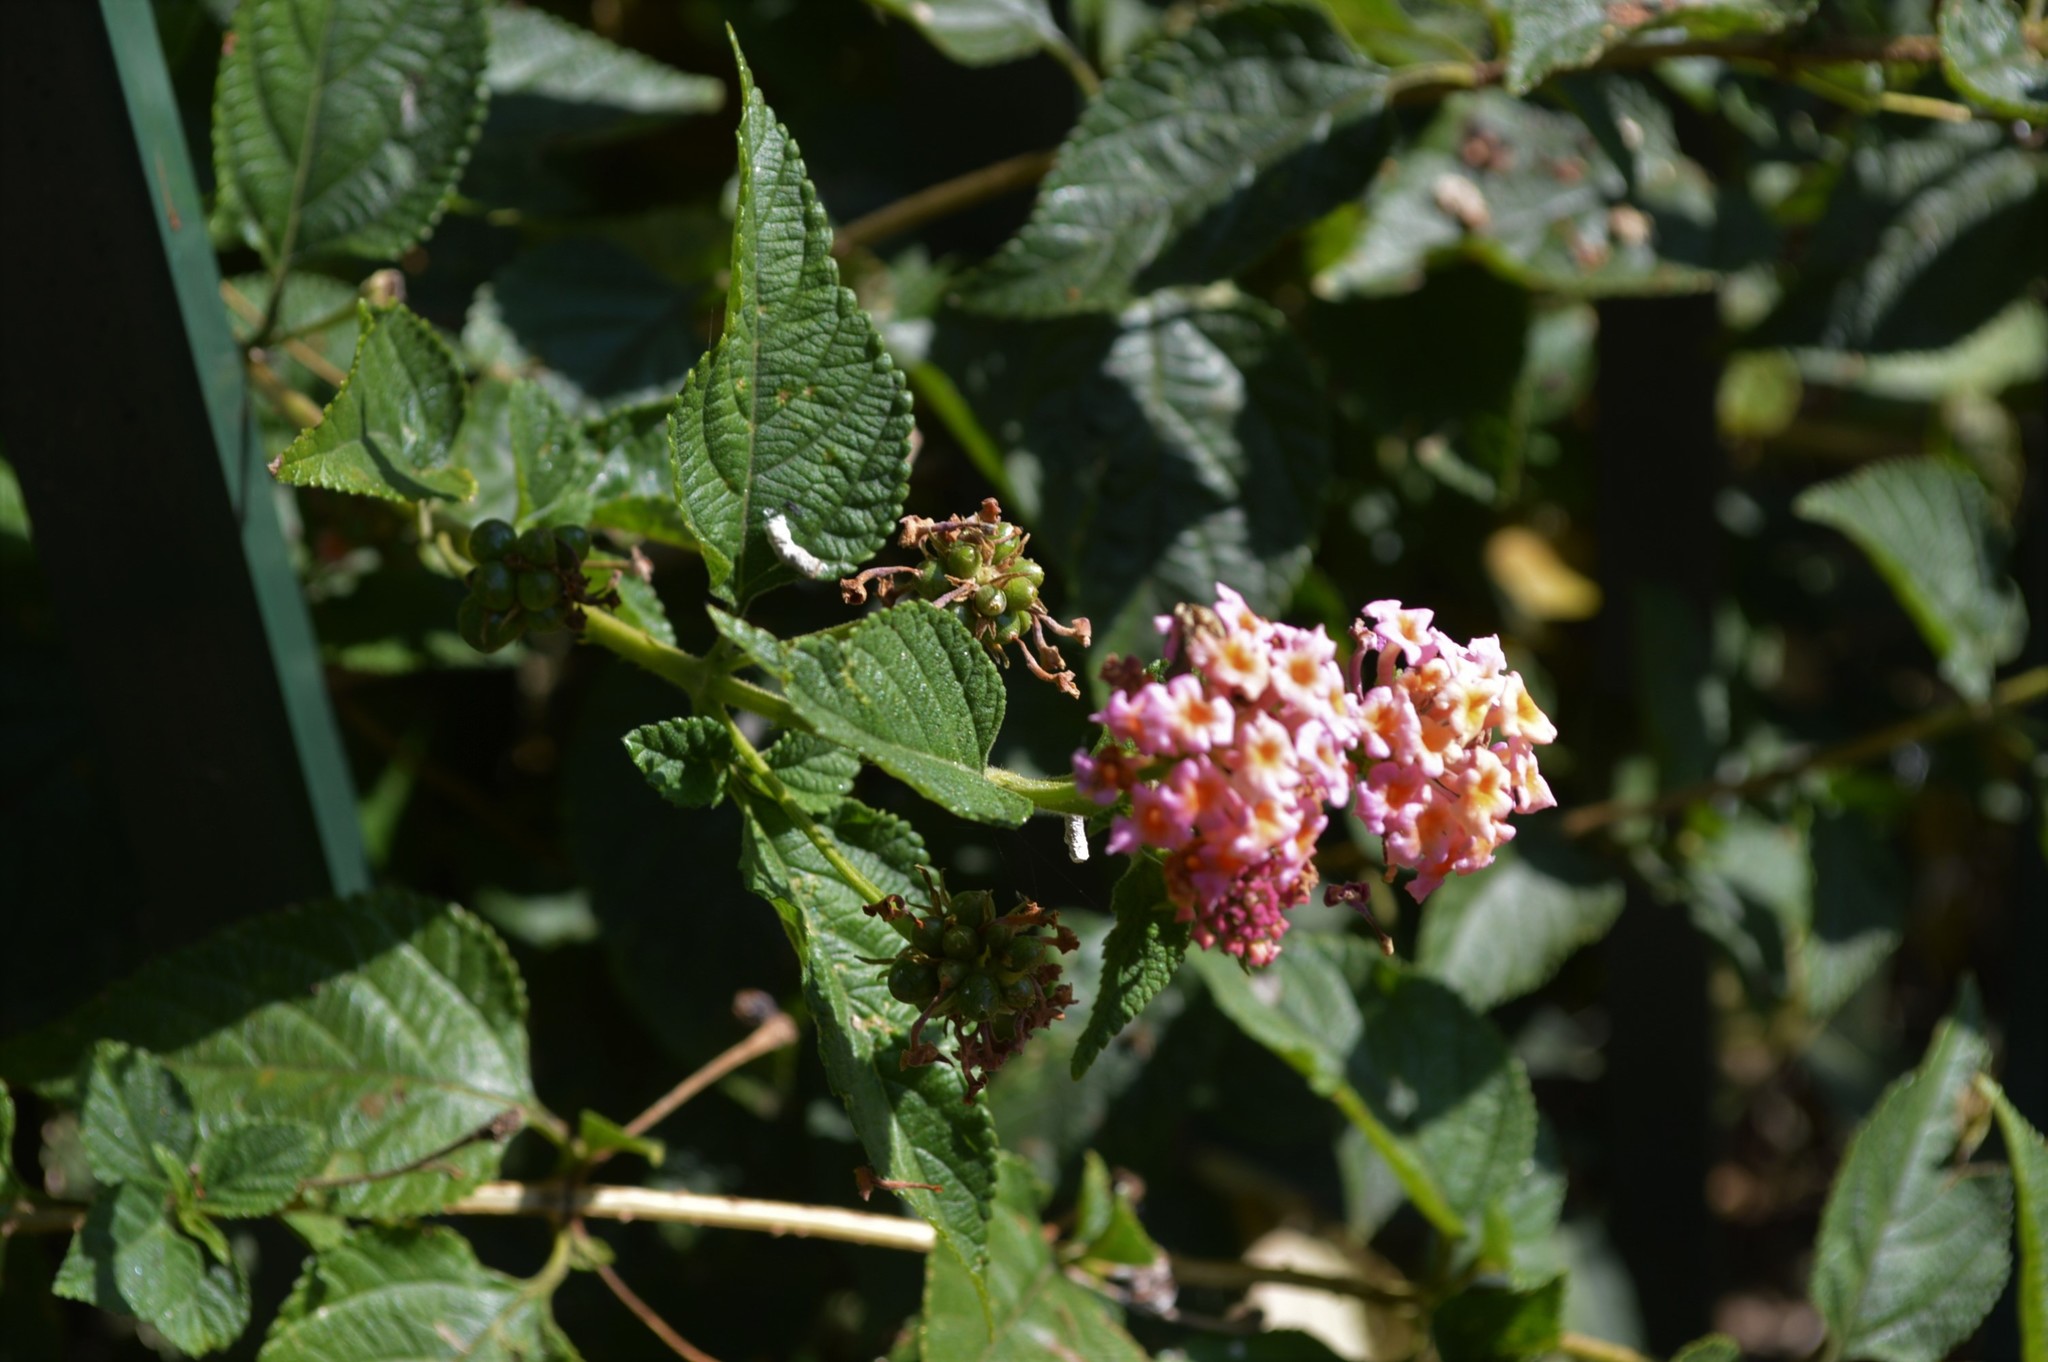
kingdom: Plantae
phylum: Tracheophyta
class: Magnoliopsida
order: Lamiales
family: Verbenaceae
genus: Lantana
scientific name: Lantana camara
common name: Lantana
